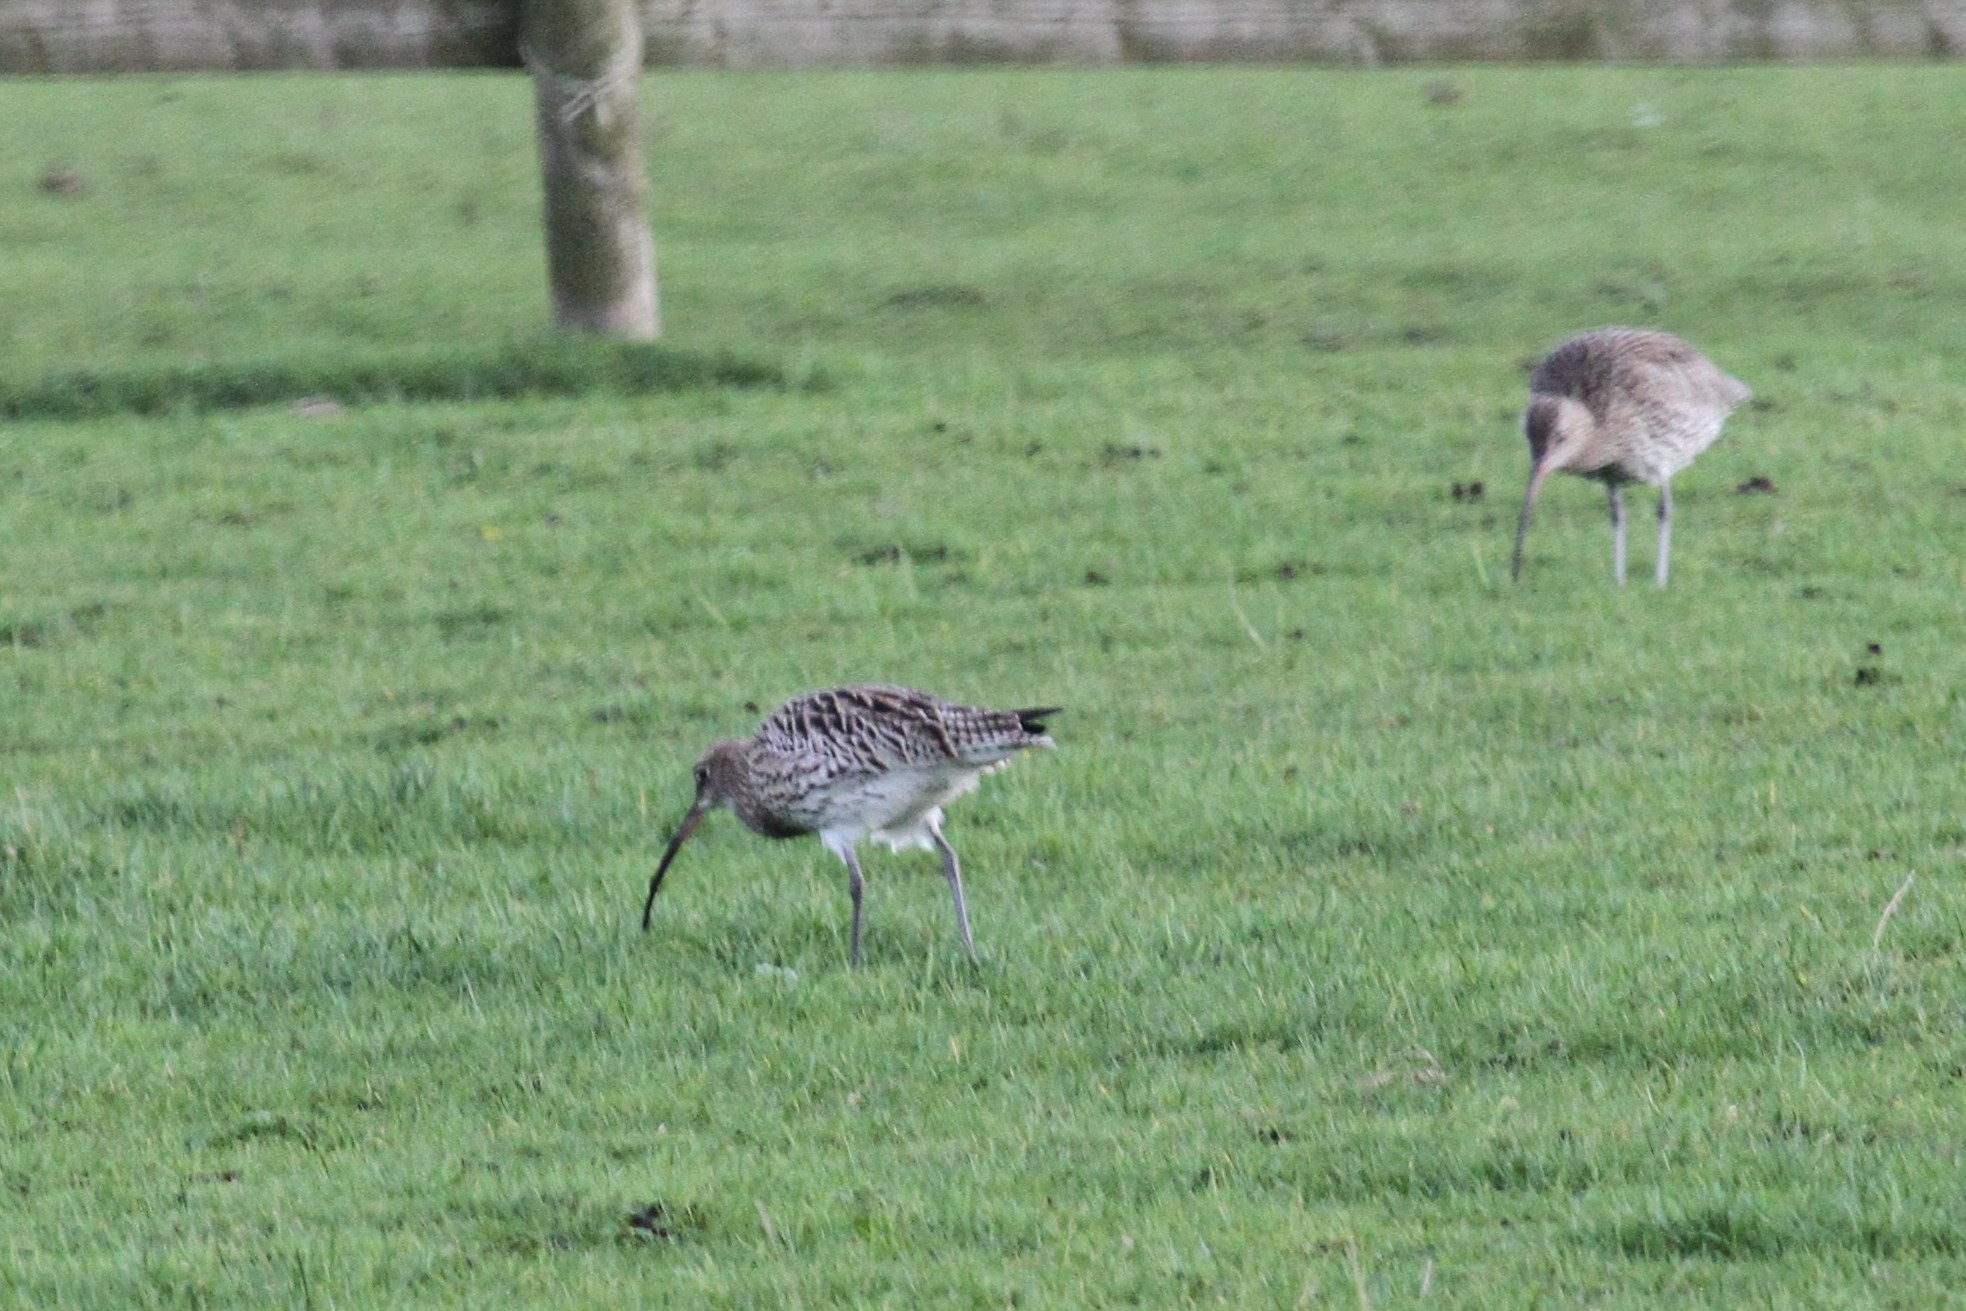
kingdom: Animalia
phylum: Chordata
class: Aves
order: Charadriiformes
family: Scolopacidae
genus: Numenius
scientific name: Numenius arquata
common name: Eurasian curlew
